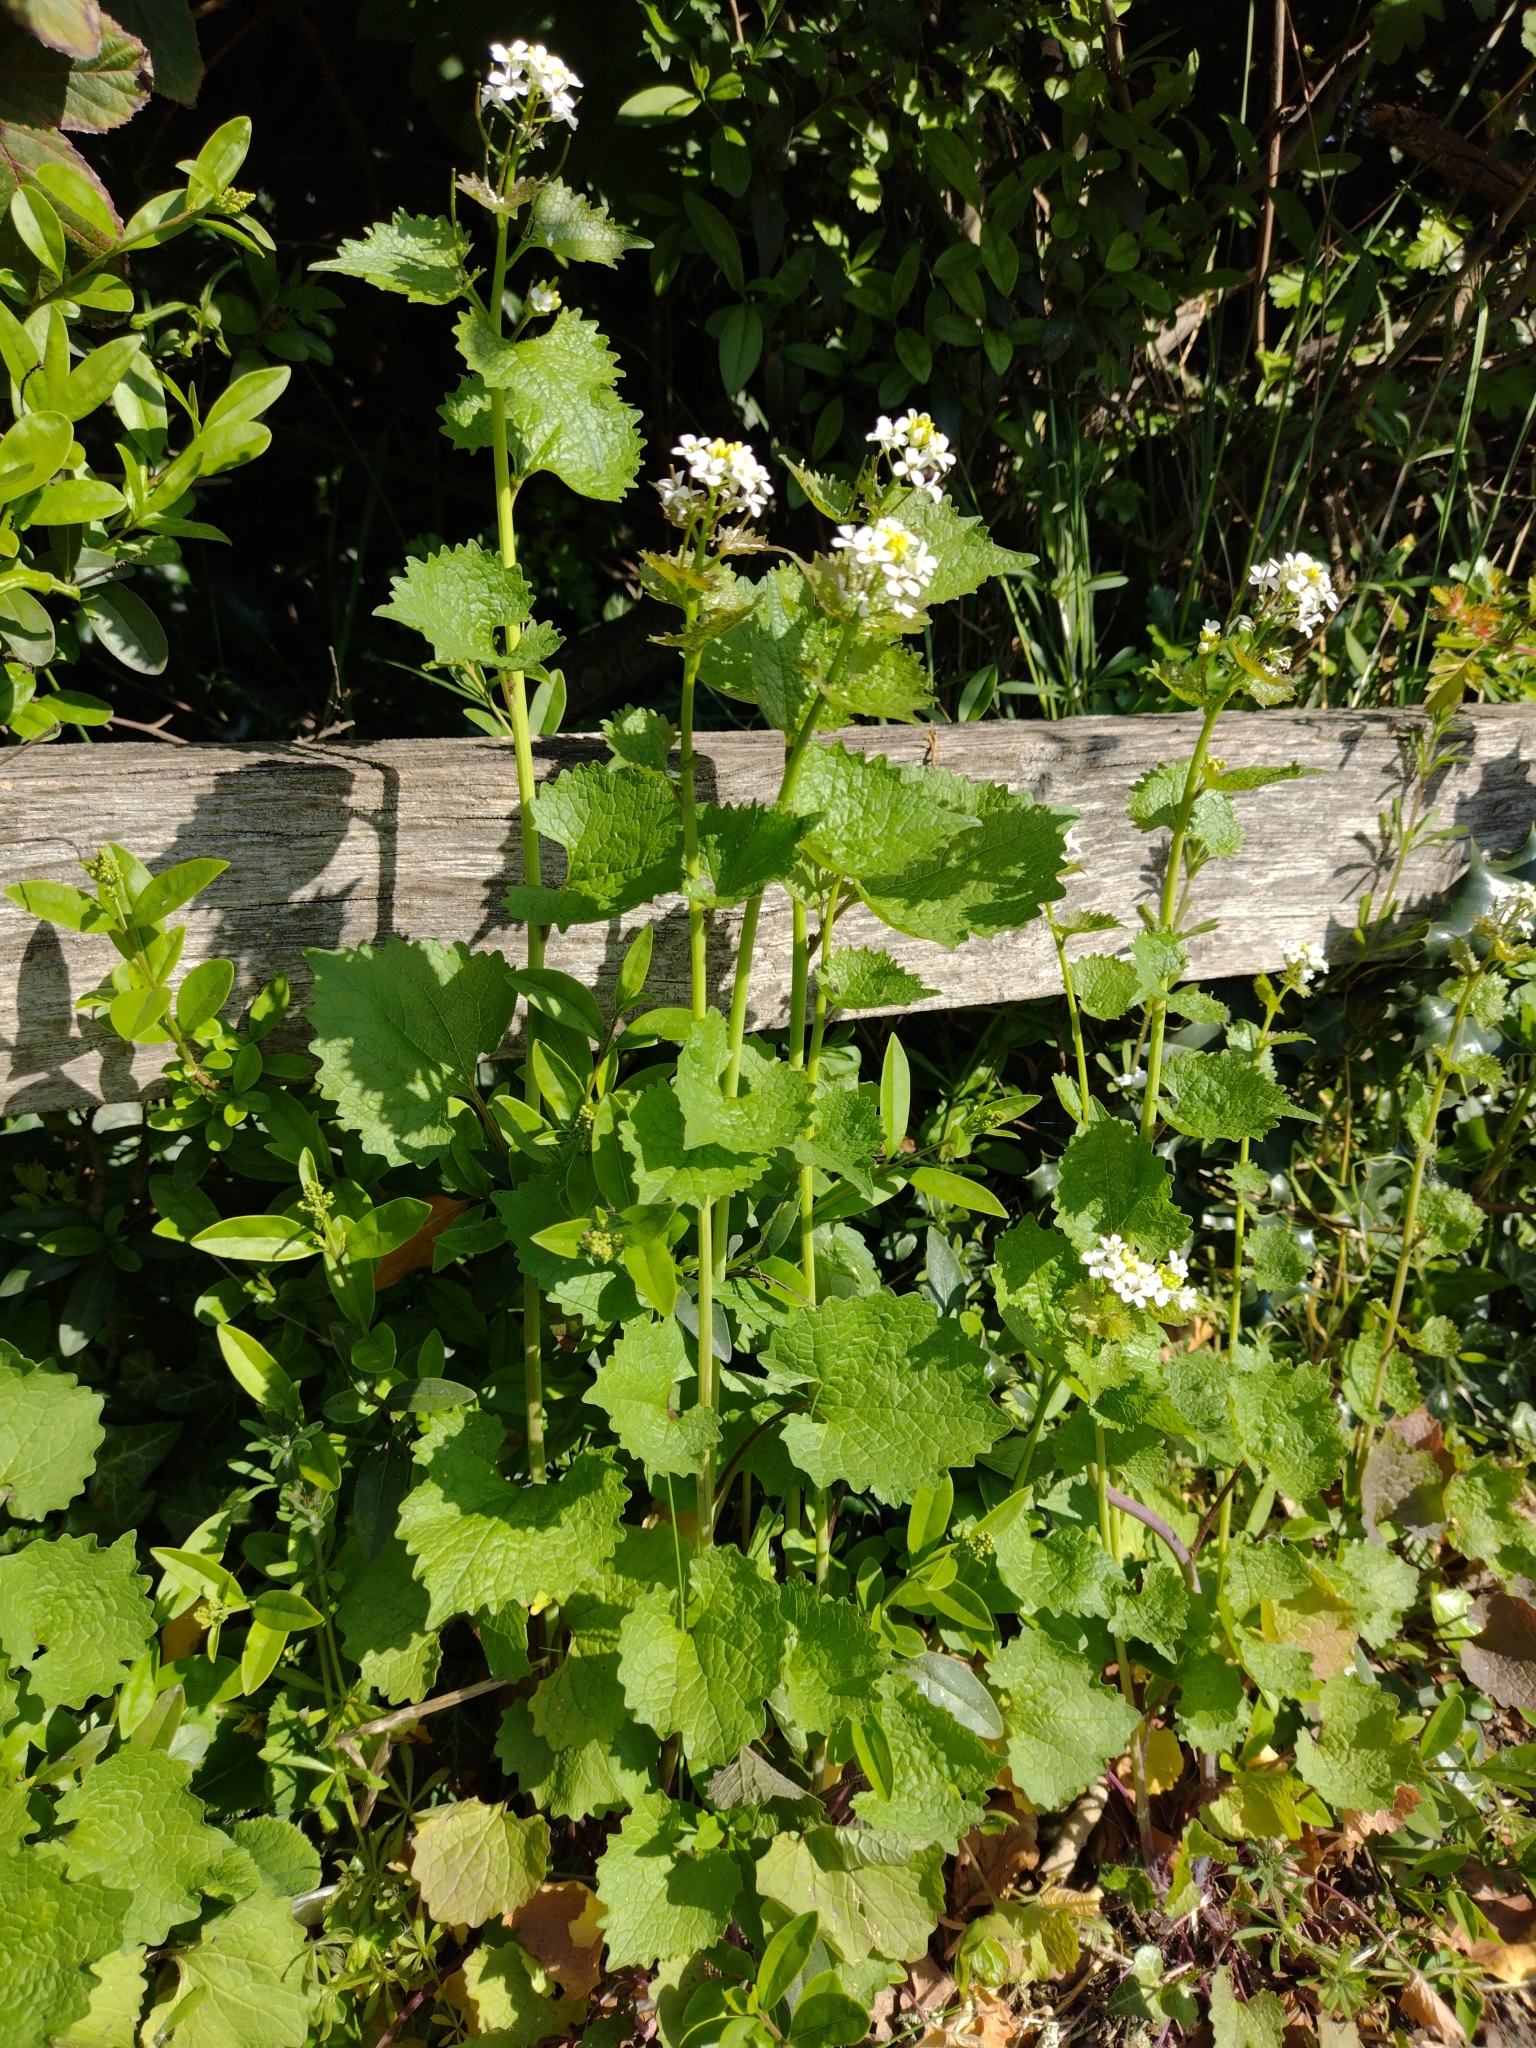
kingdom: Plantae
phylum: Tracheophyta
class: Magnoliopsida
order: Brassicales
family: Brassicaceae
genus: Alliaria
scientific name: Alliaria petiolata
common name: Garlic mustard
